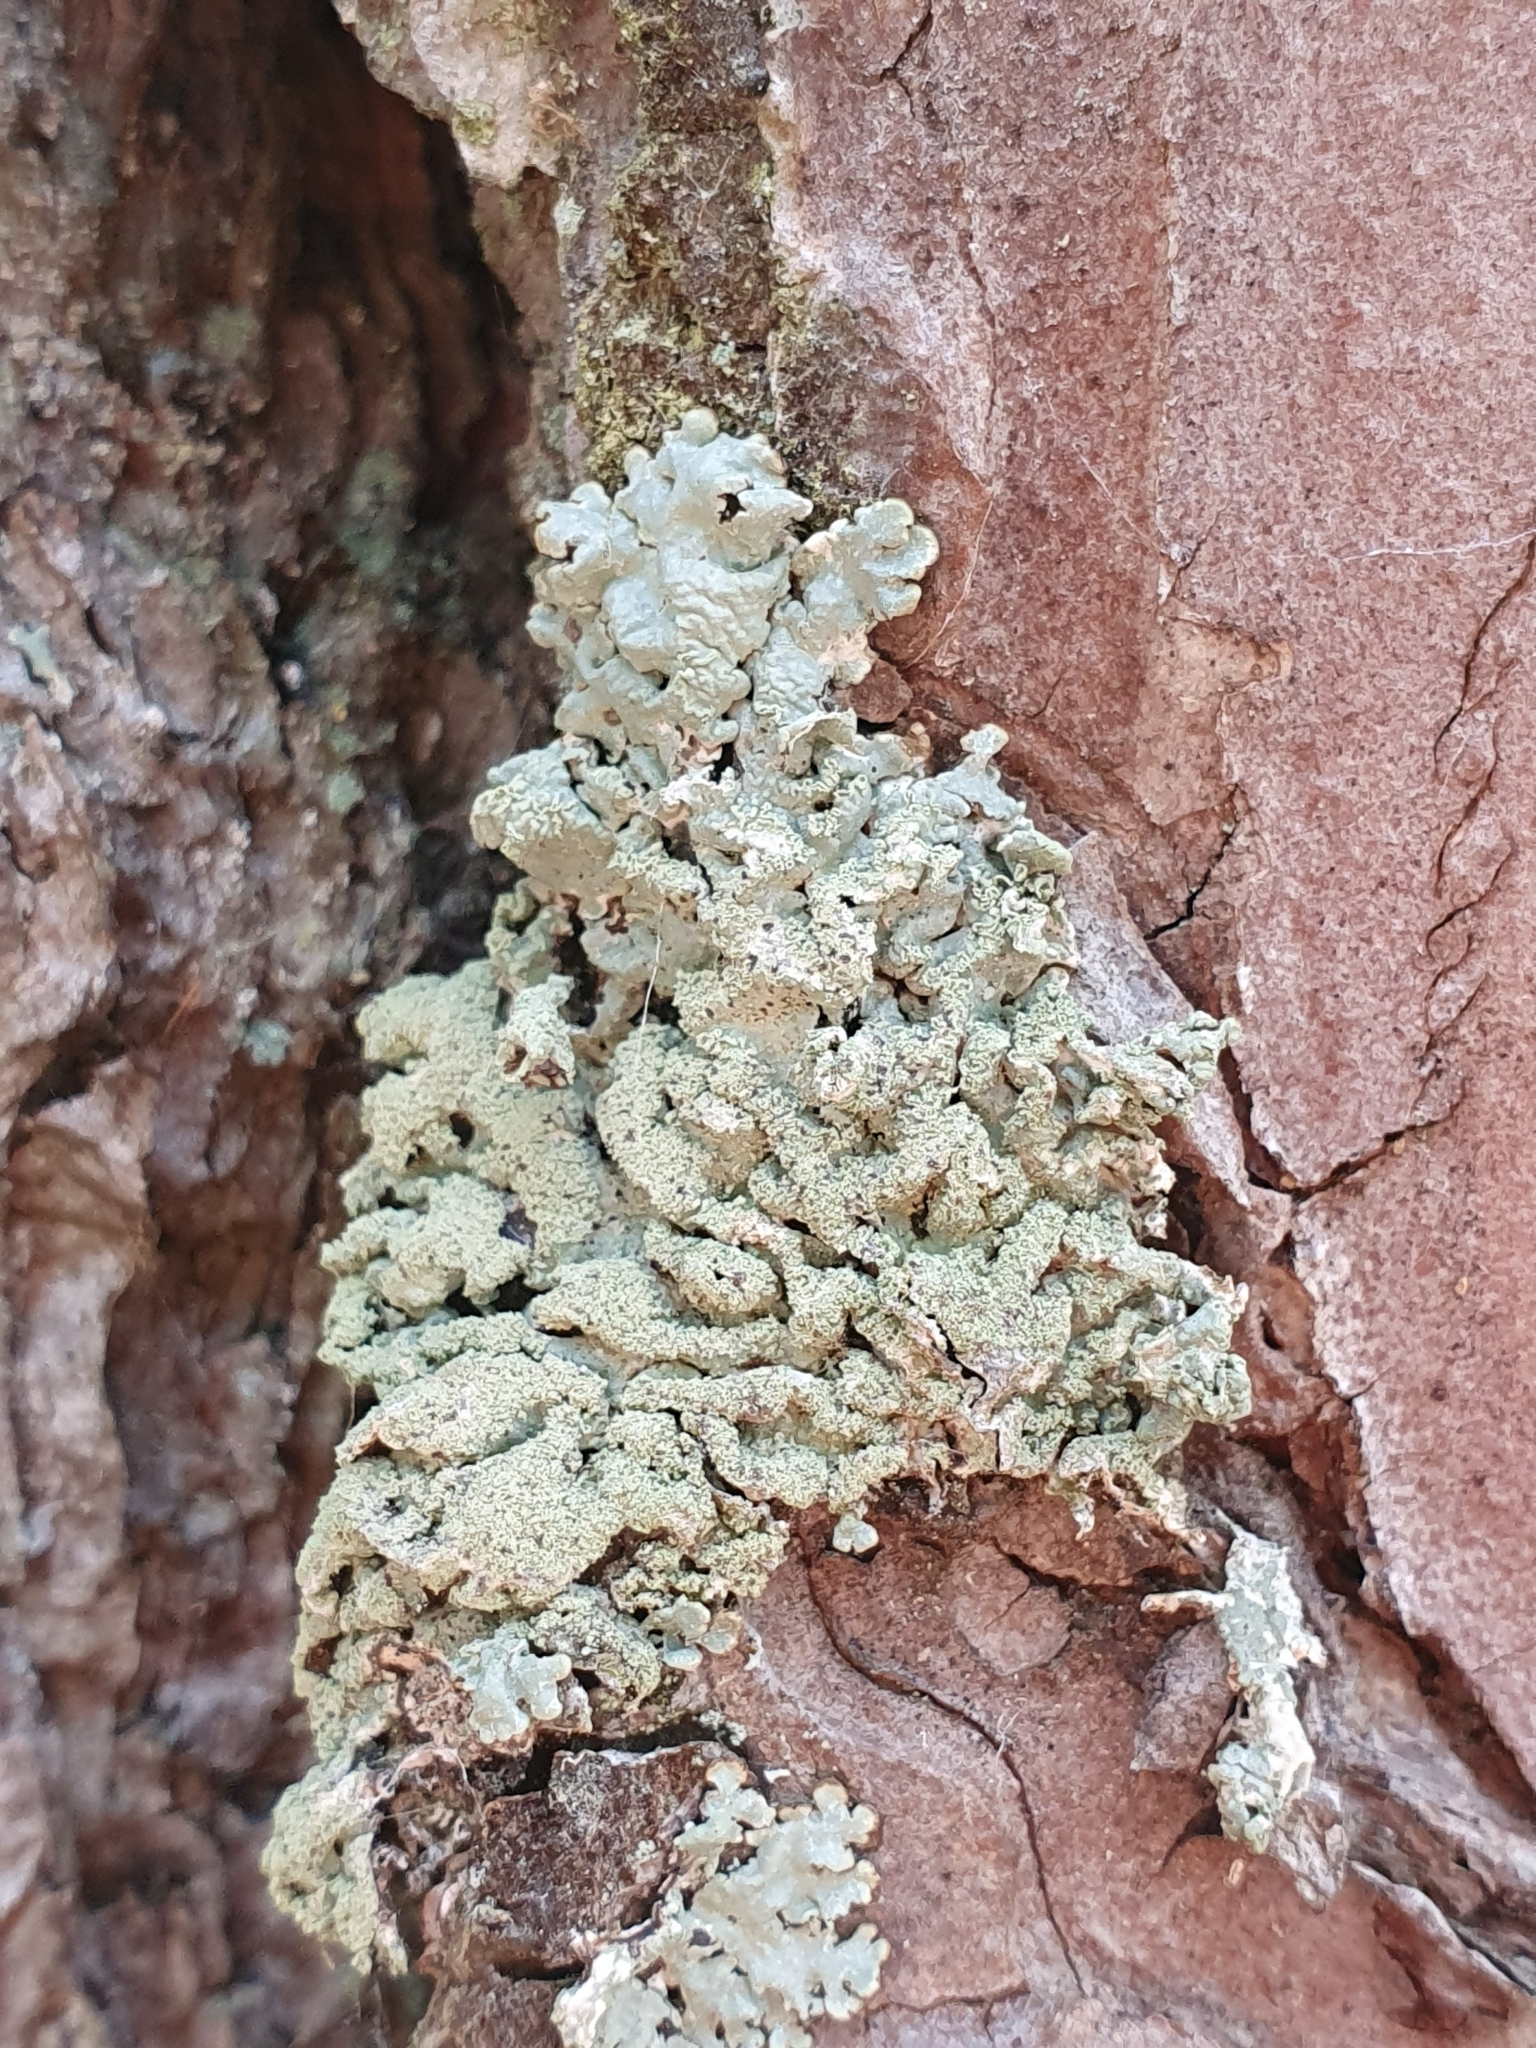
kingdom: Fungi
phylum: Ascomycota
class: Lecanoromycetes
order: Lecanorales
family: Parmeliaceae
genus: Hypogymnia
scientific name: Hypogymnia farinacea
